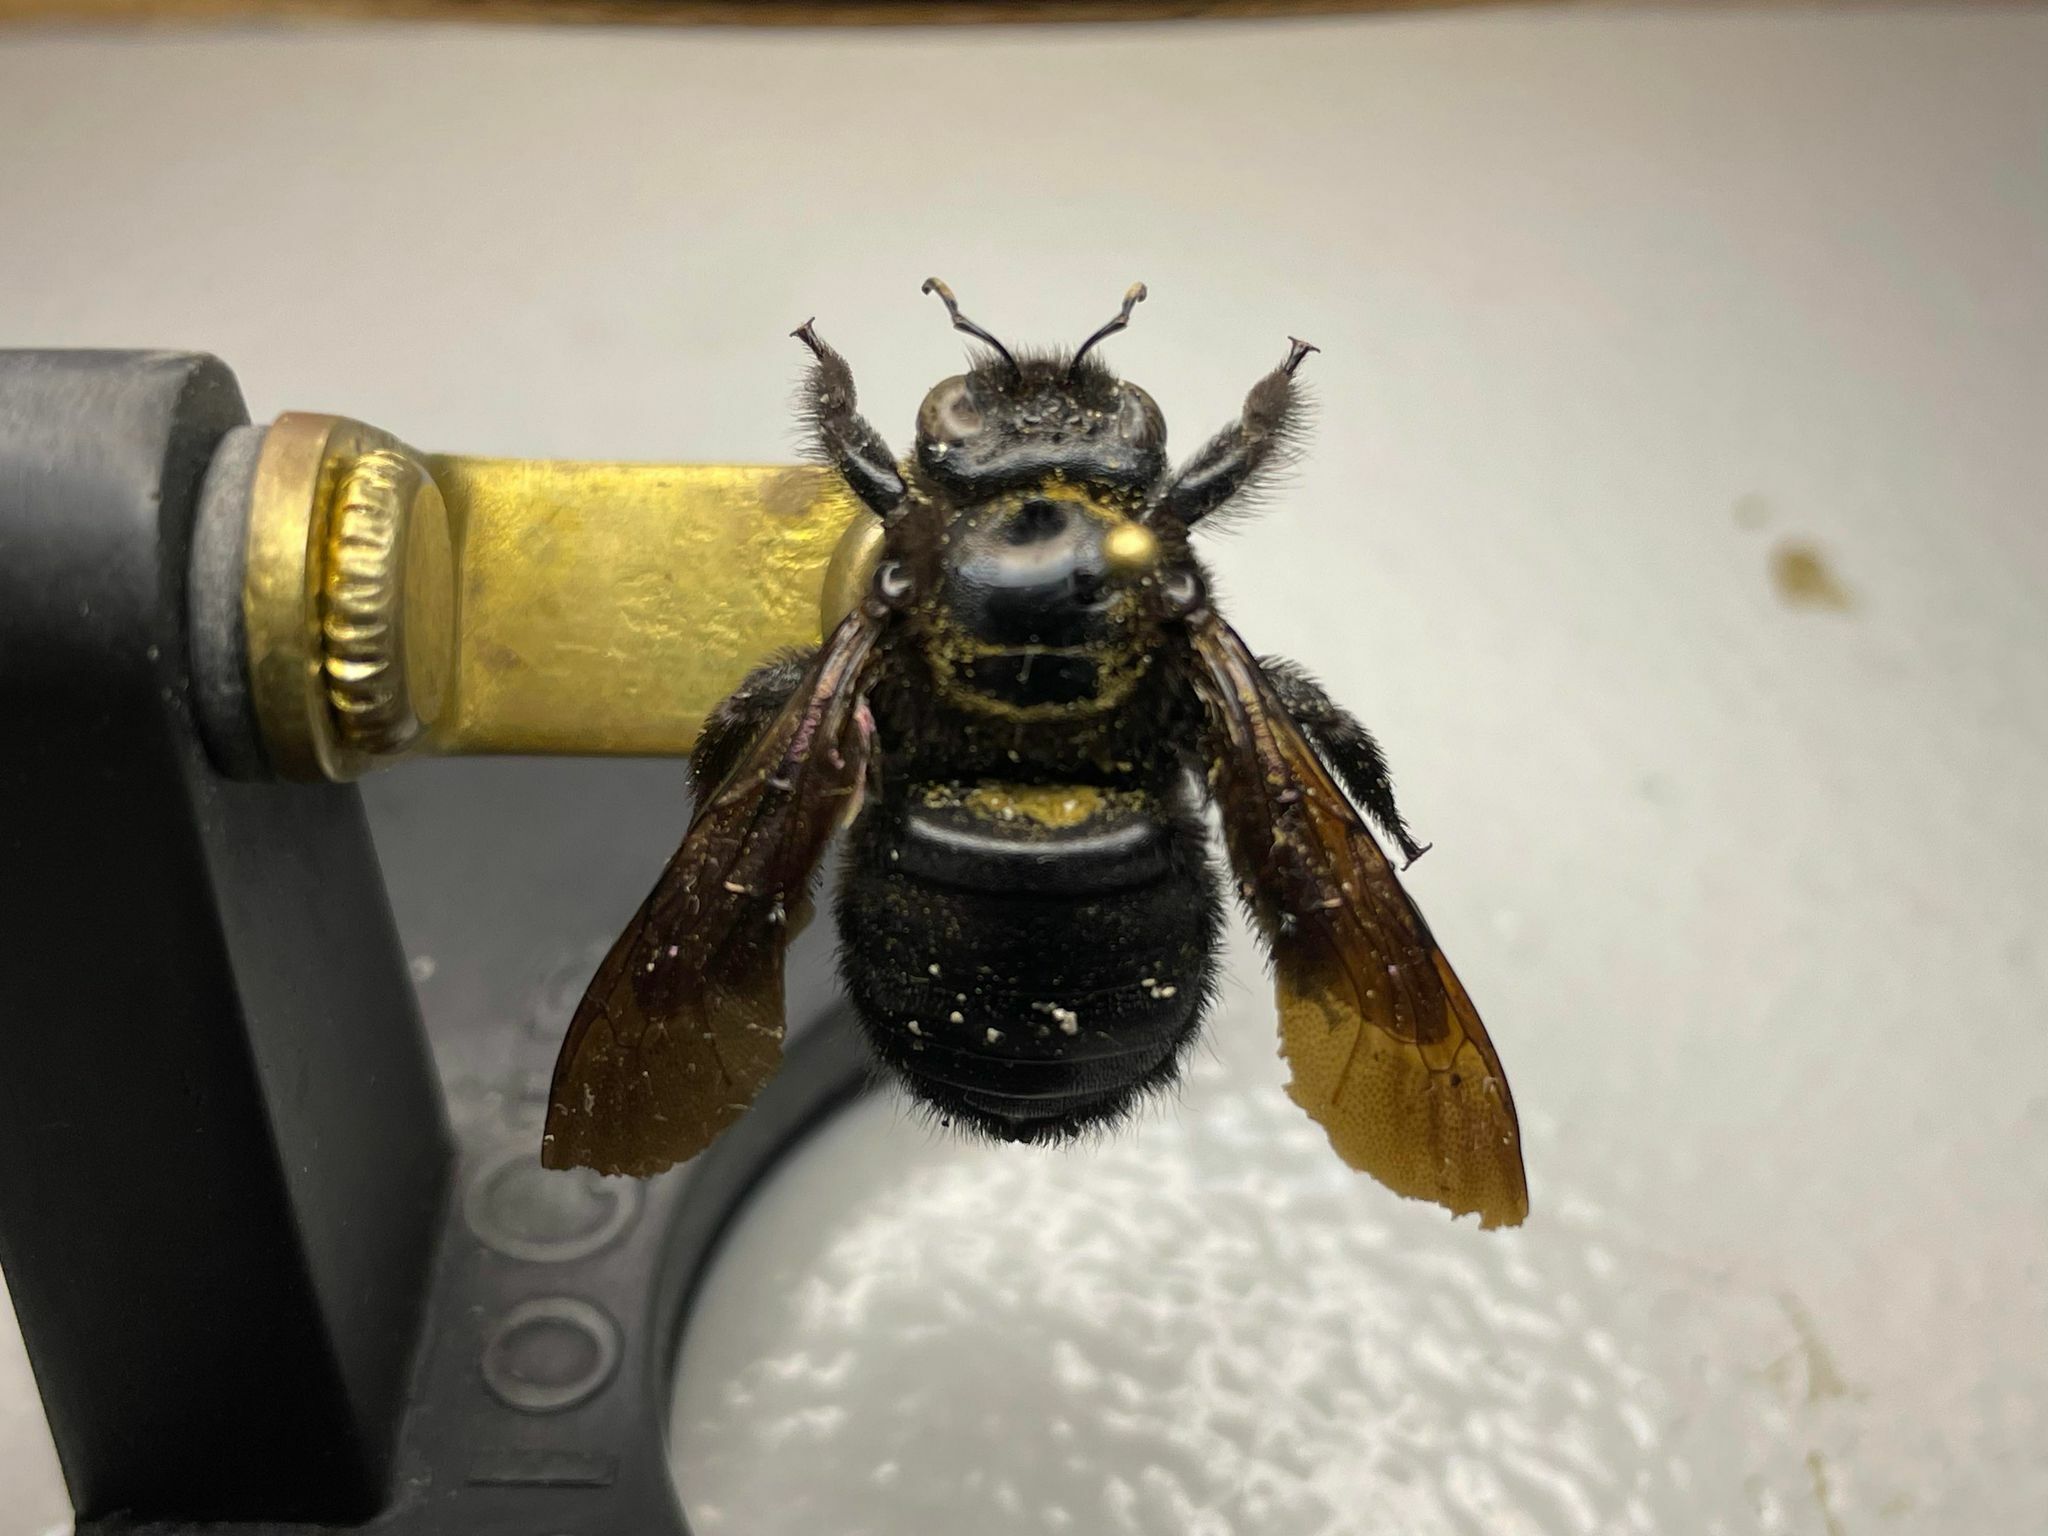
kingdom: Animalia
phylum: Arthropoda
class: Insecta
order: Hymenoptera
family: Apidae
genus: Xylocopa
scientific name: Xylocopa mordax
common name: Antillean carpenter bee
